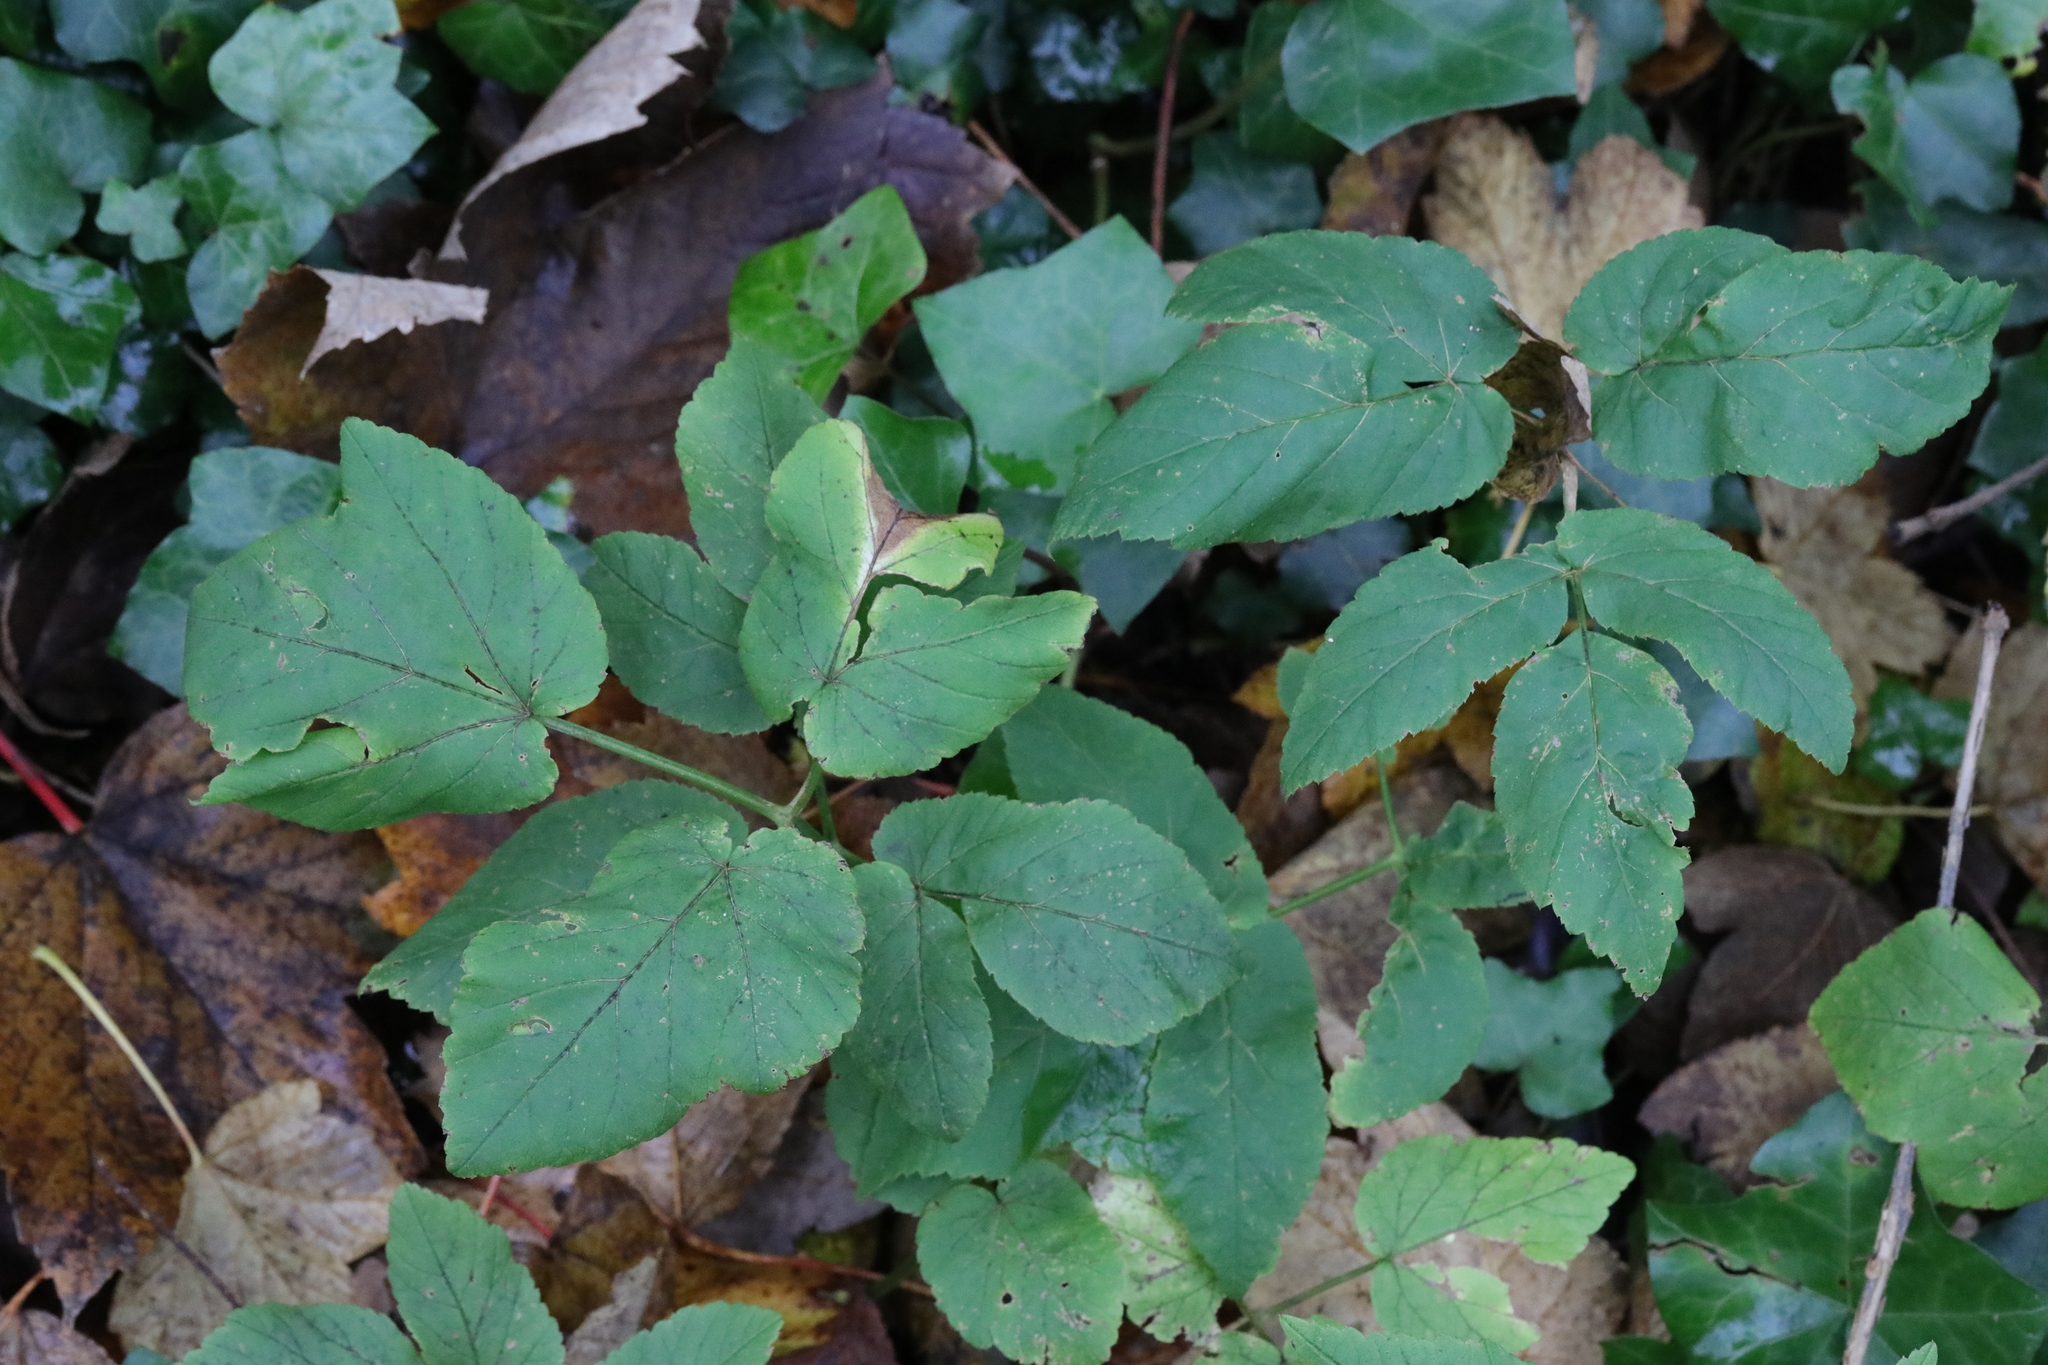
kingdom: Plantae
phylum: Tracheophyta
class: Magnoliopsida
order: Apiales
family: Apiaceae
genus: Aegopodium
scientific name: Aegopodium podagraria
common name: Ground-elder
